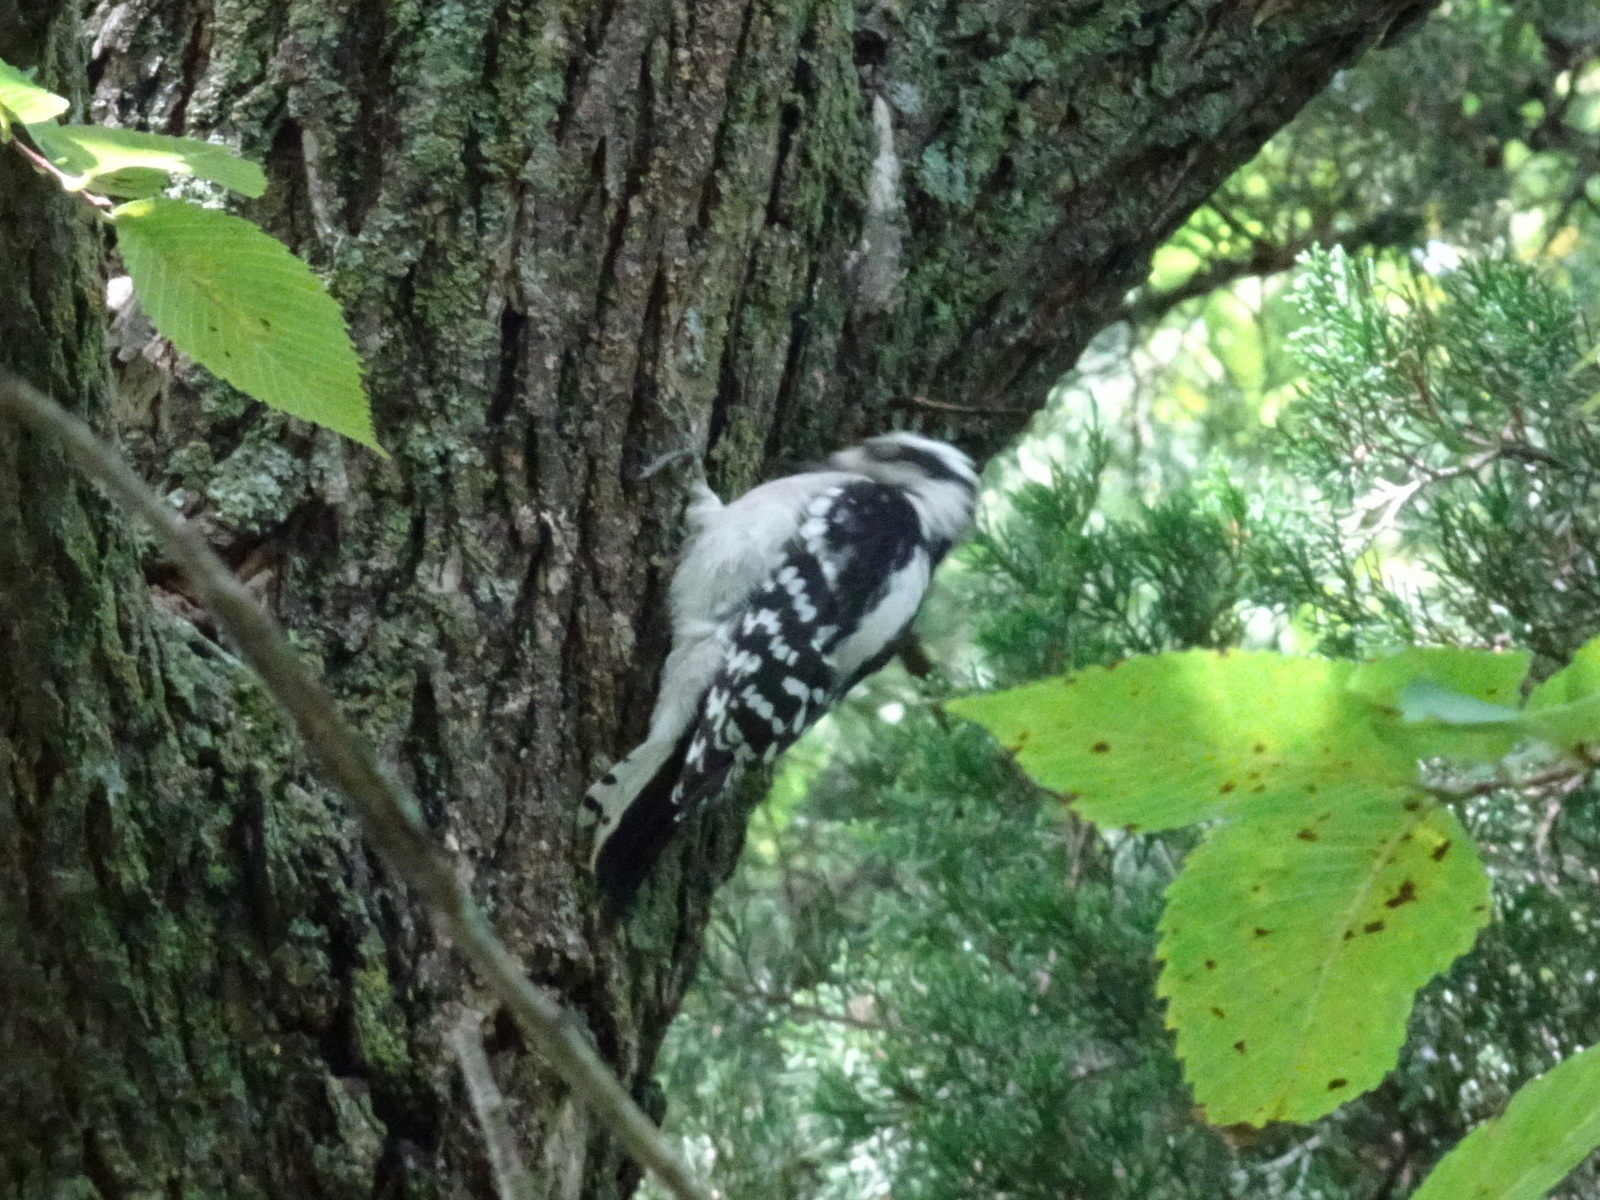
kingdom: Animalia
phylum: Chordata
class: Aves
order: Piciformes
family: Picidae
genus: Dryobates
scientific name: Dryobates pubescens
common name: Downy woodpecker
